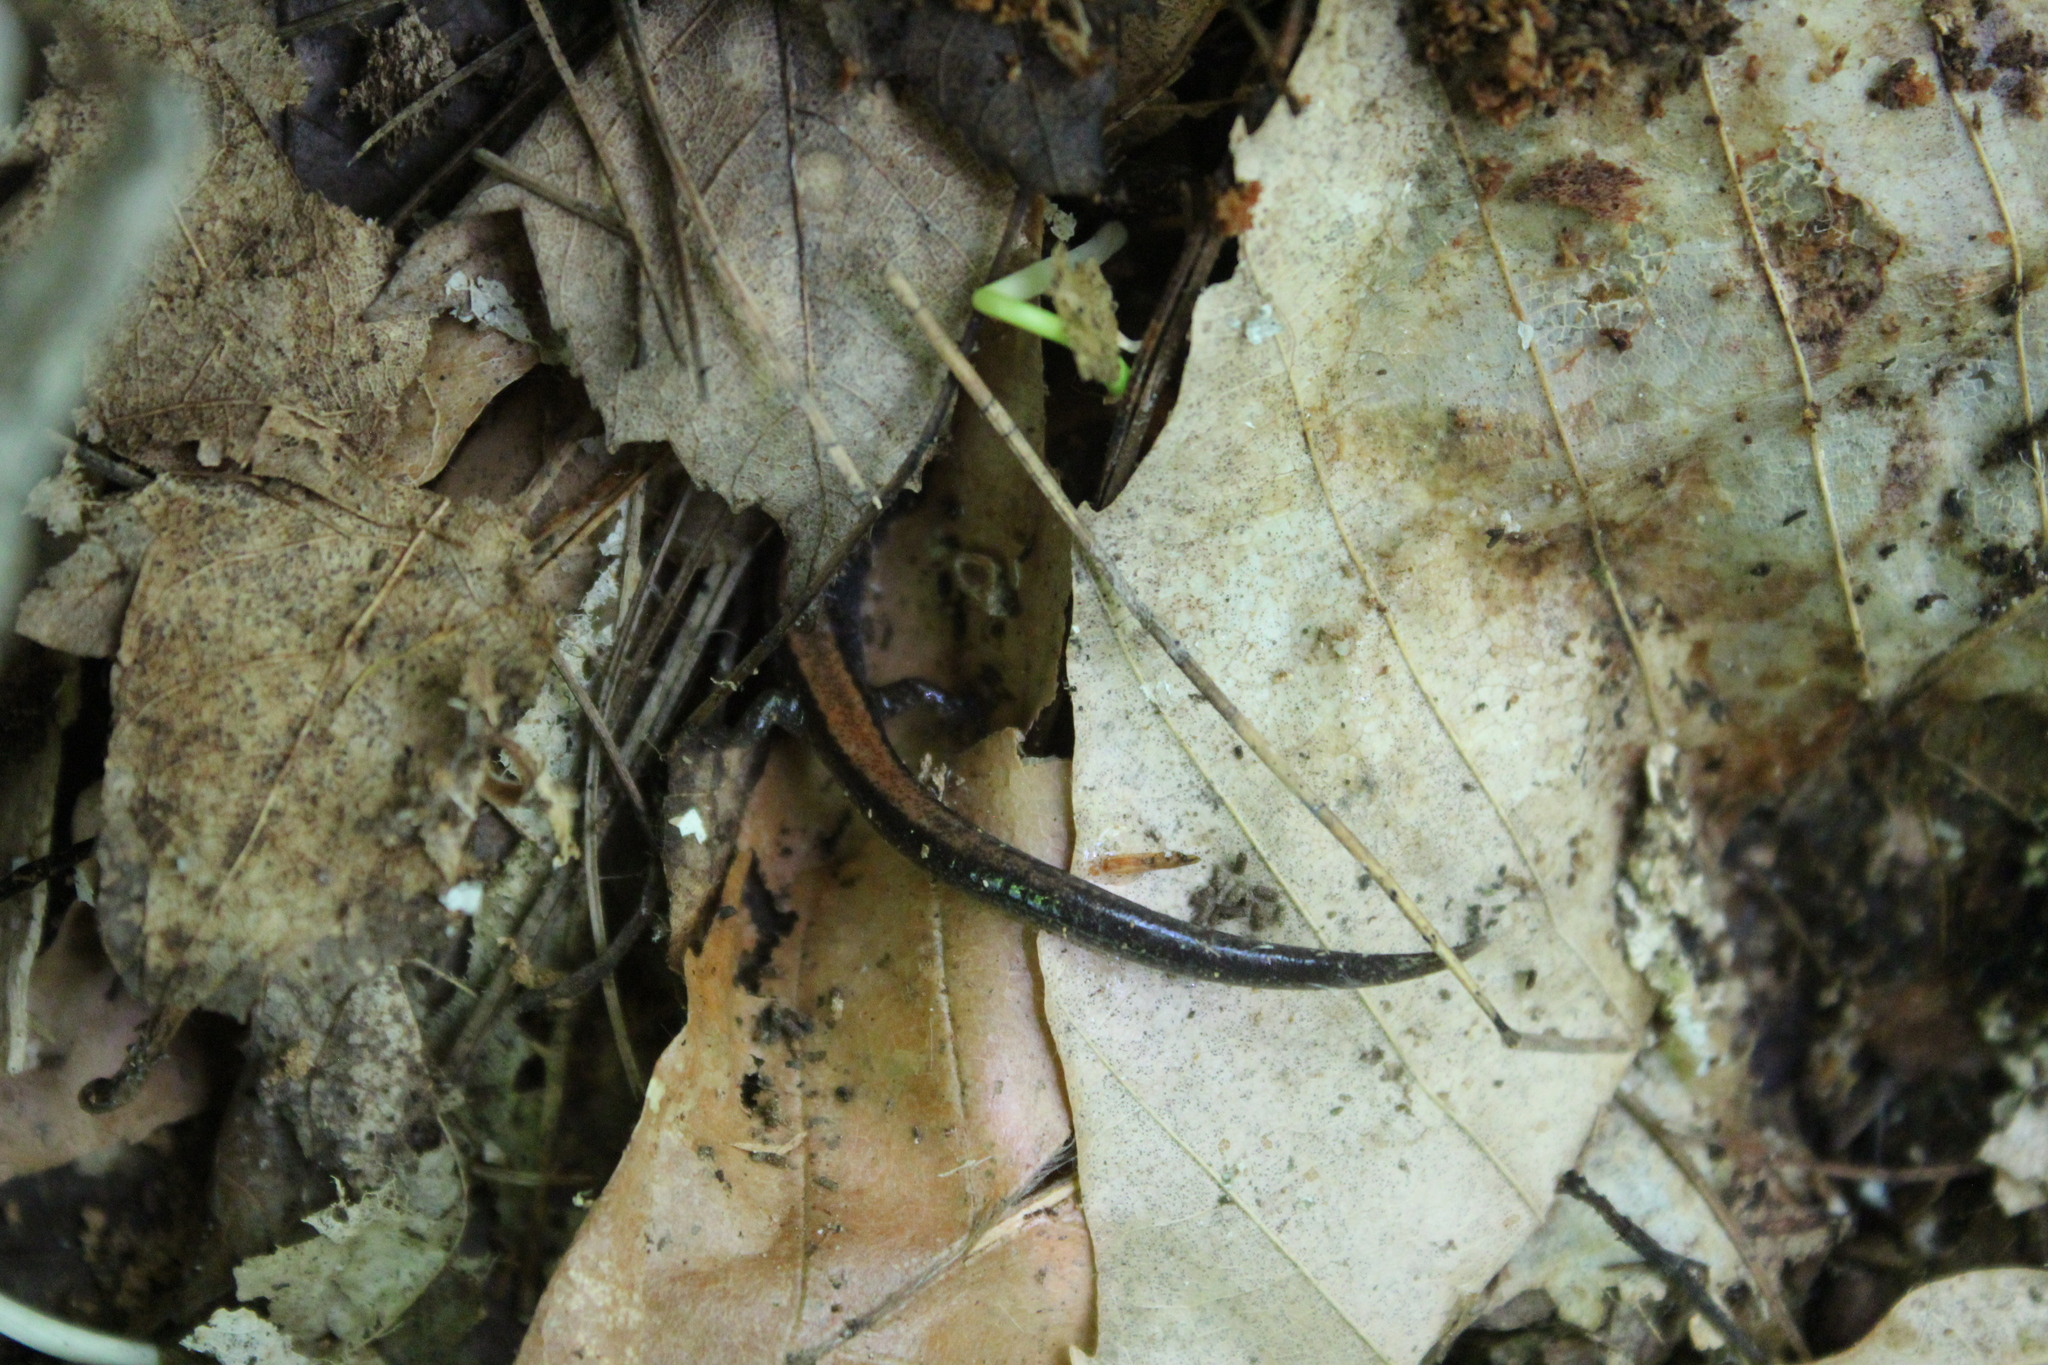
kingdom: Animalia
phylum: Chordata
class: Amphibia
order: Caudata
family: Plethodontidae
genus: Plethodon
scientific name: Plethodon cinereus
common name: Redback salamander
